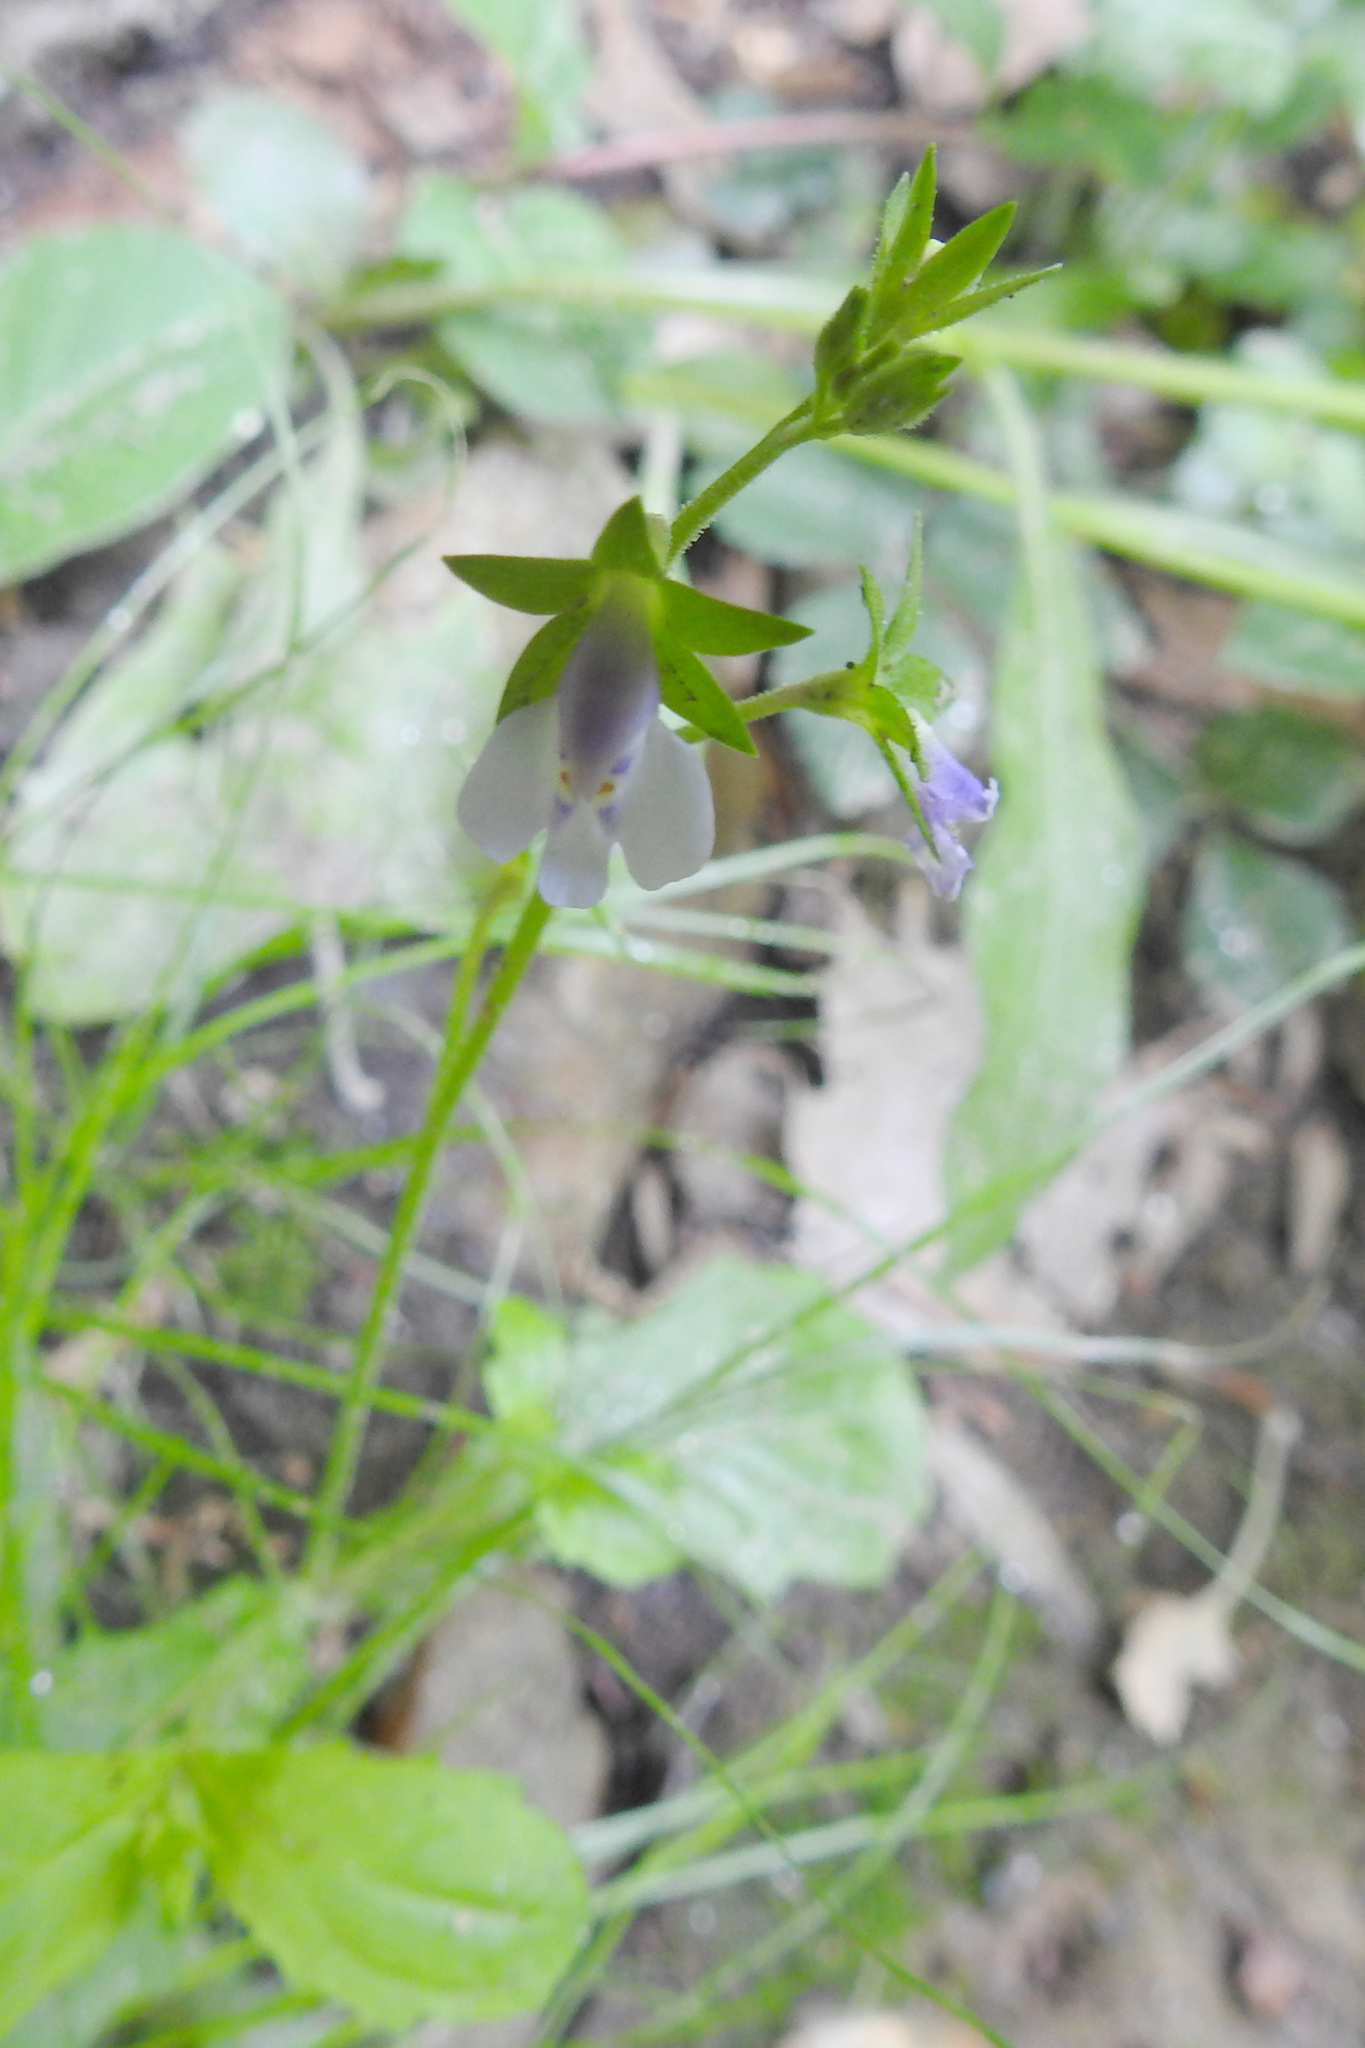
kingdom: Plantae
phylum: Tracheophyta
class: Magnoliopsida
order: Lamiales
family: Mazaceae
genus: Mazus
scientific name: Mazus pumilus
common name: Japanese mazus
